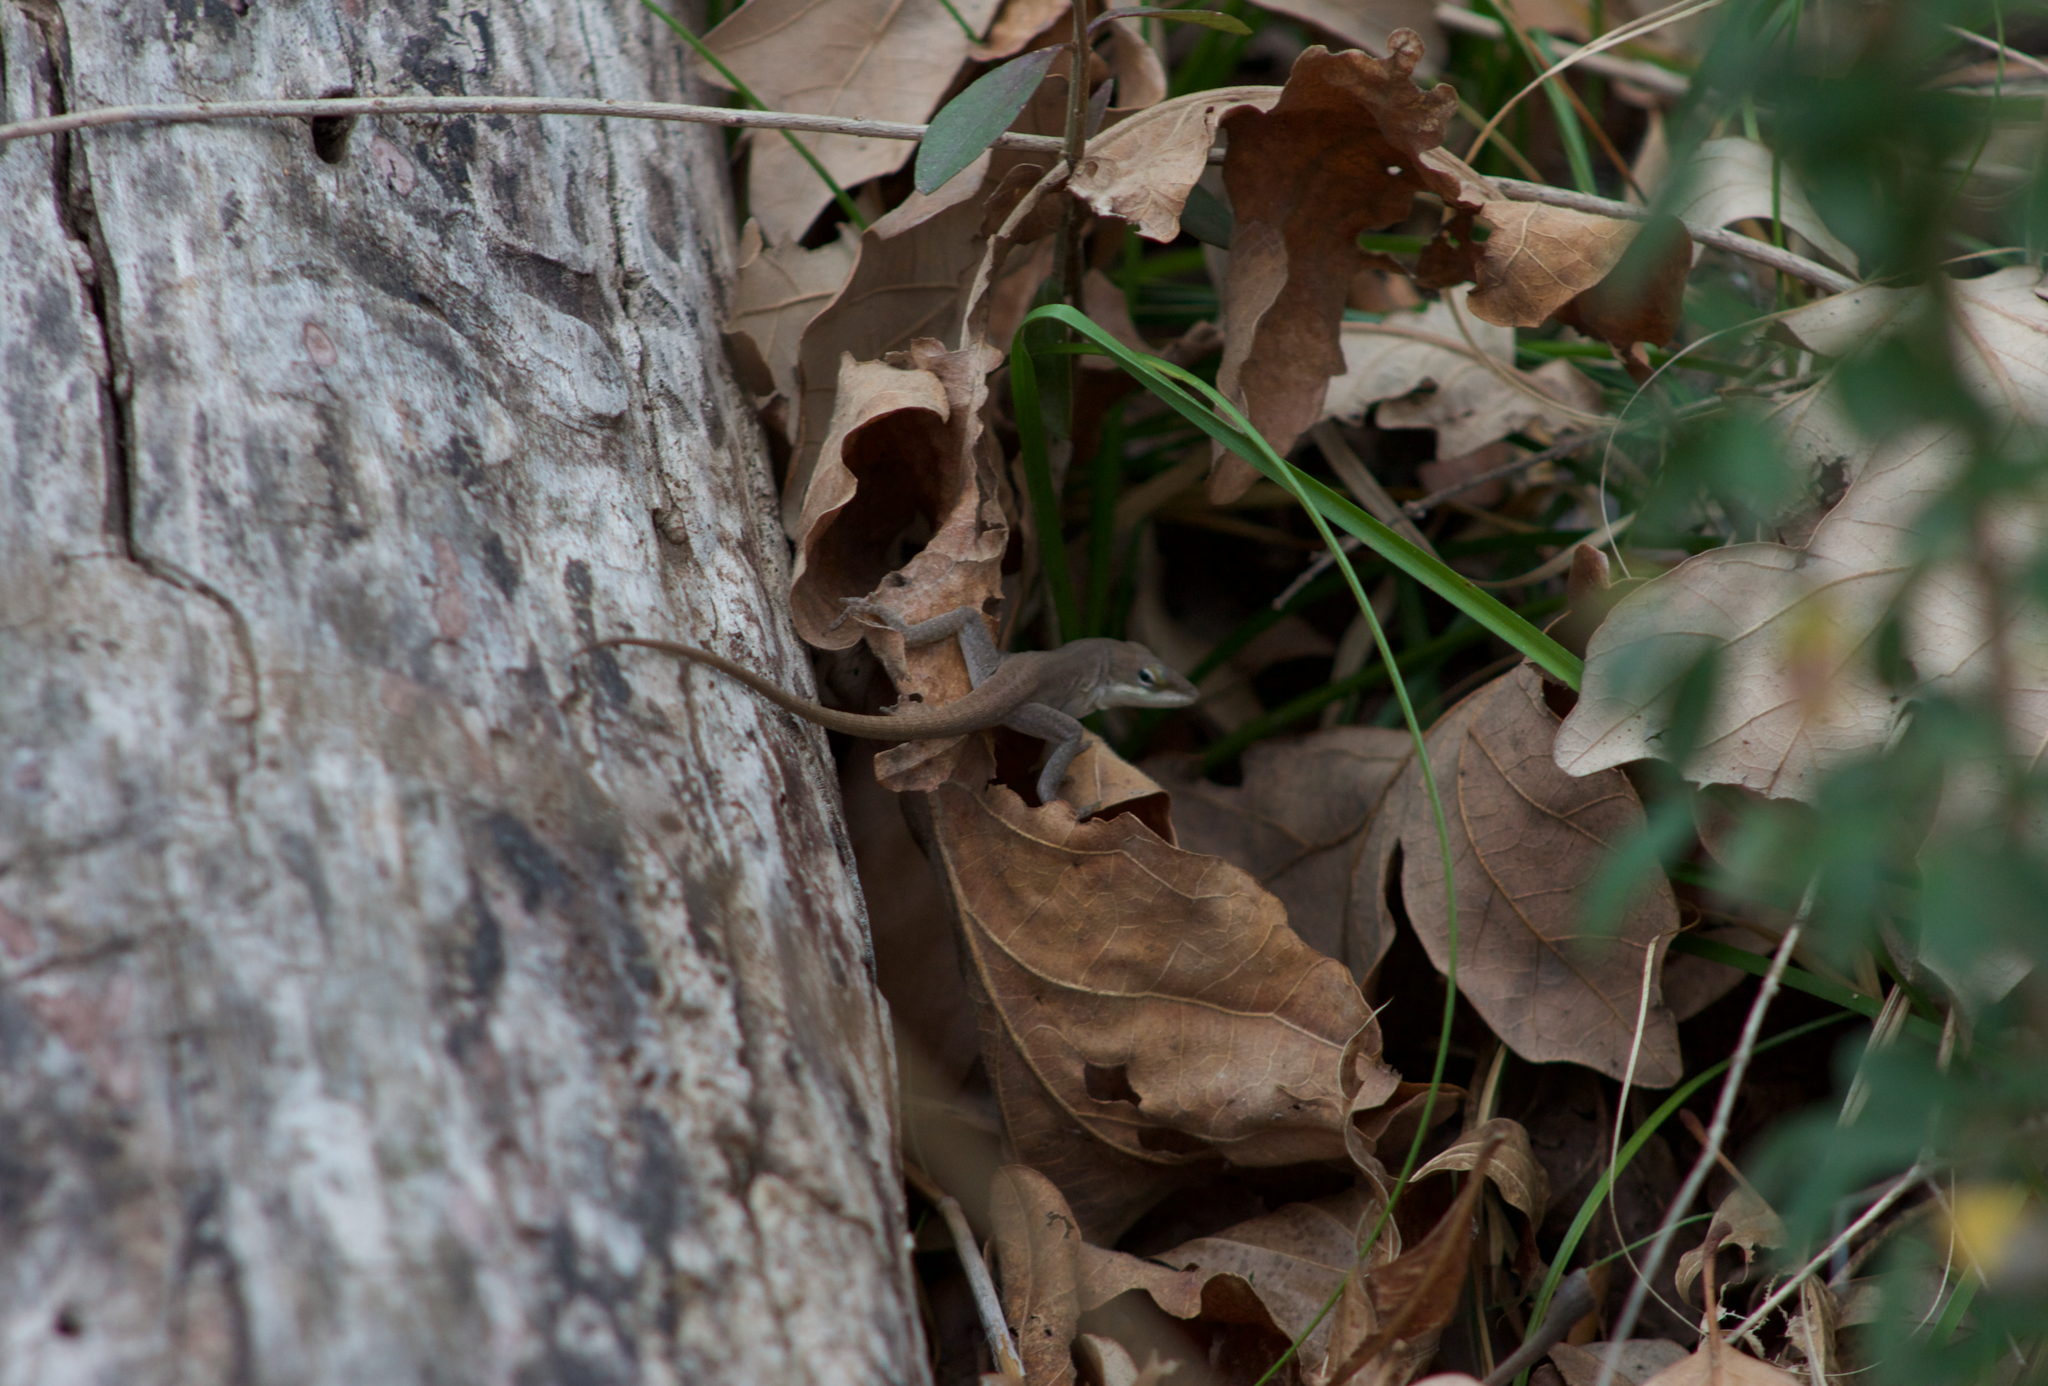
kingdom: Animalia
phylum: Chordata
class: Squamata
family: Dactyloidae
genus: Anolis
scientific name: Anolis carolinensis
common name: Green anole
